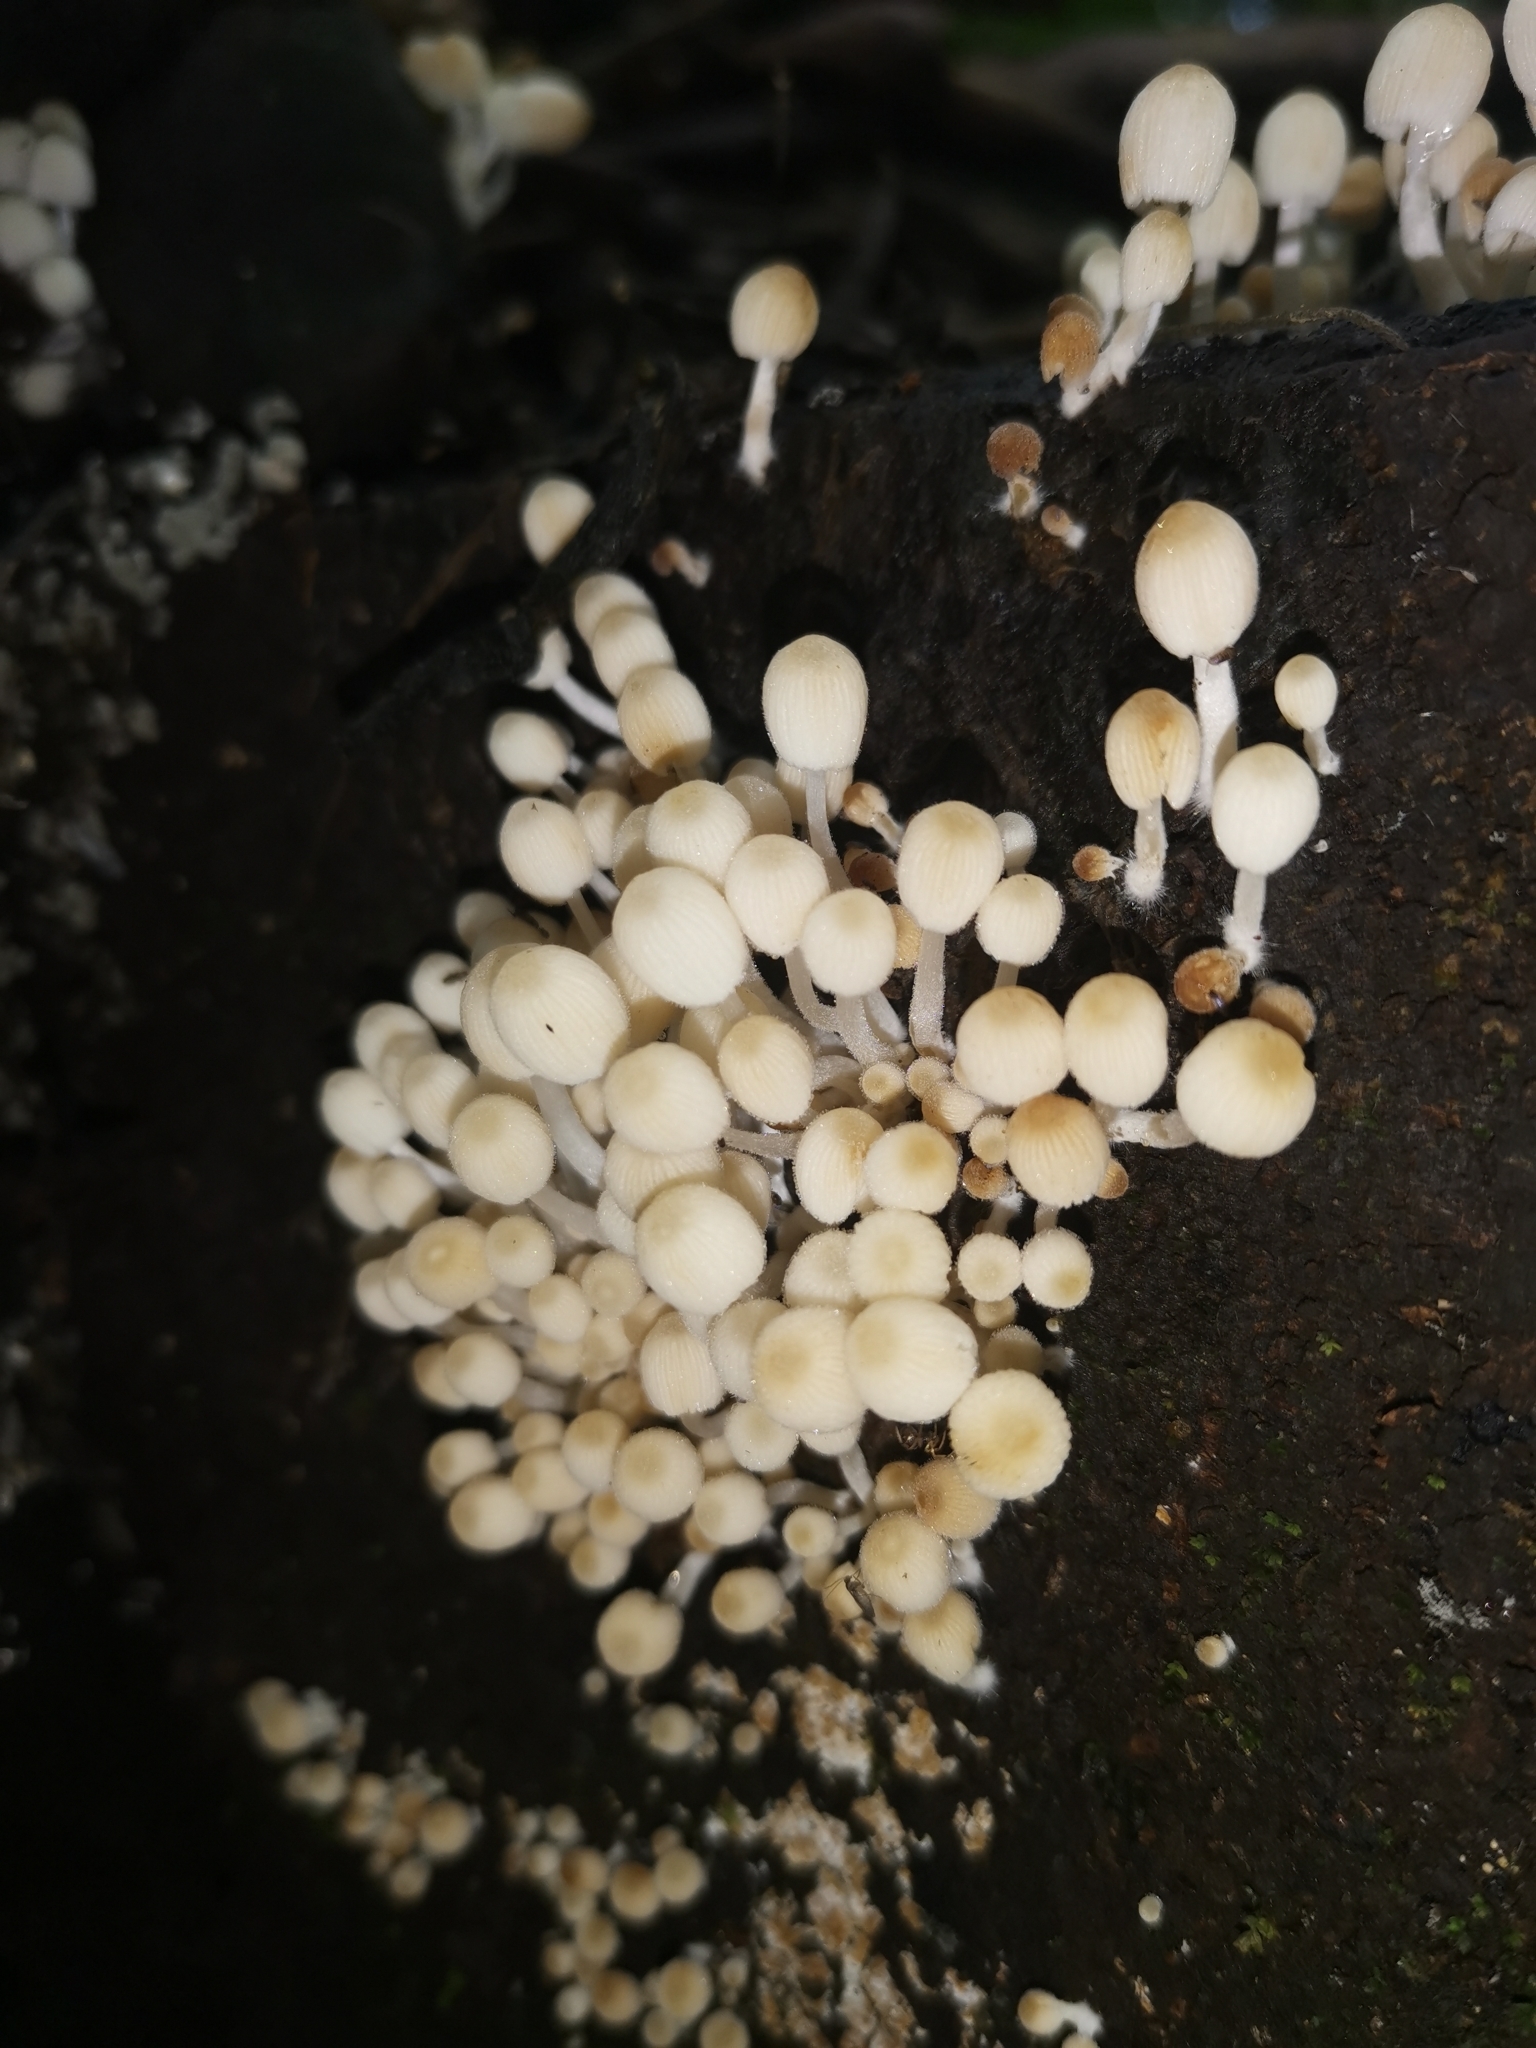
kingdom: Fungi
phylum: Basidiomycota
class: Agaricomycetes
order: Agaricales
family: Psathyrellaceae
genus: Coprinellus
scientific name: Coprinellus disseminatus
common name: Fairies' bonnets
